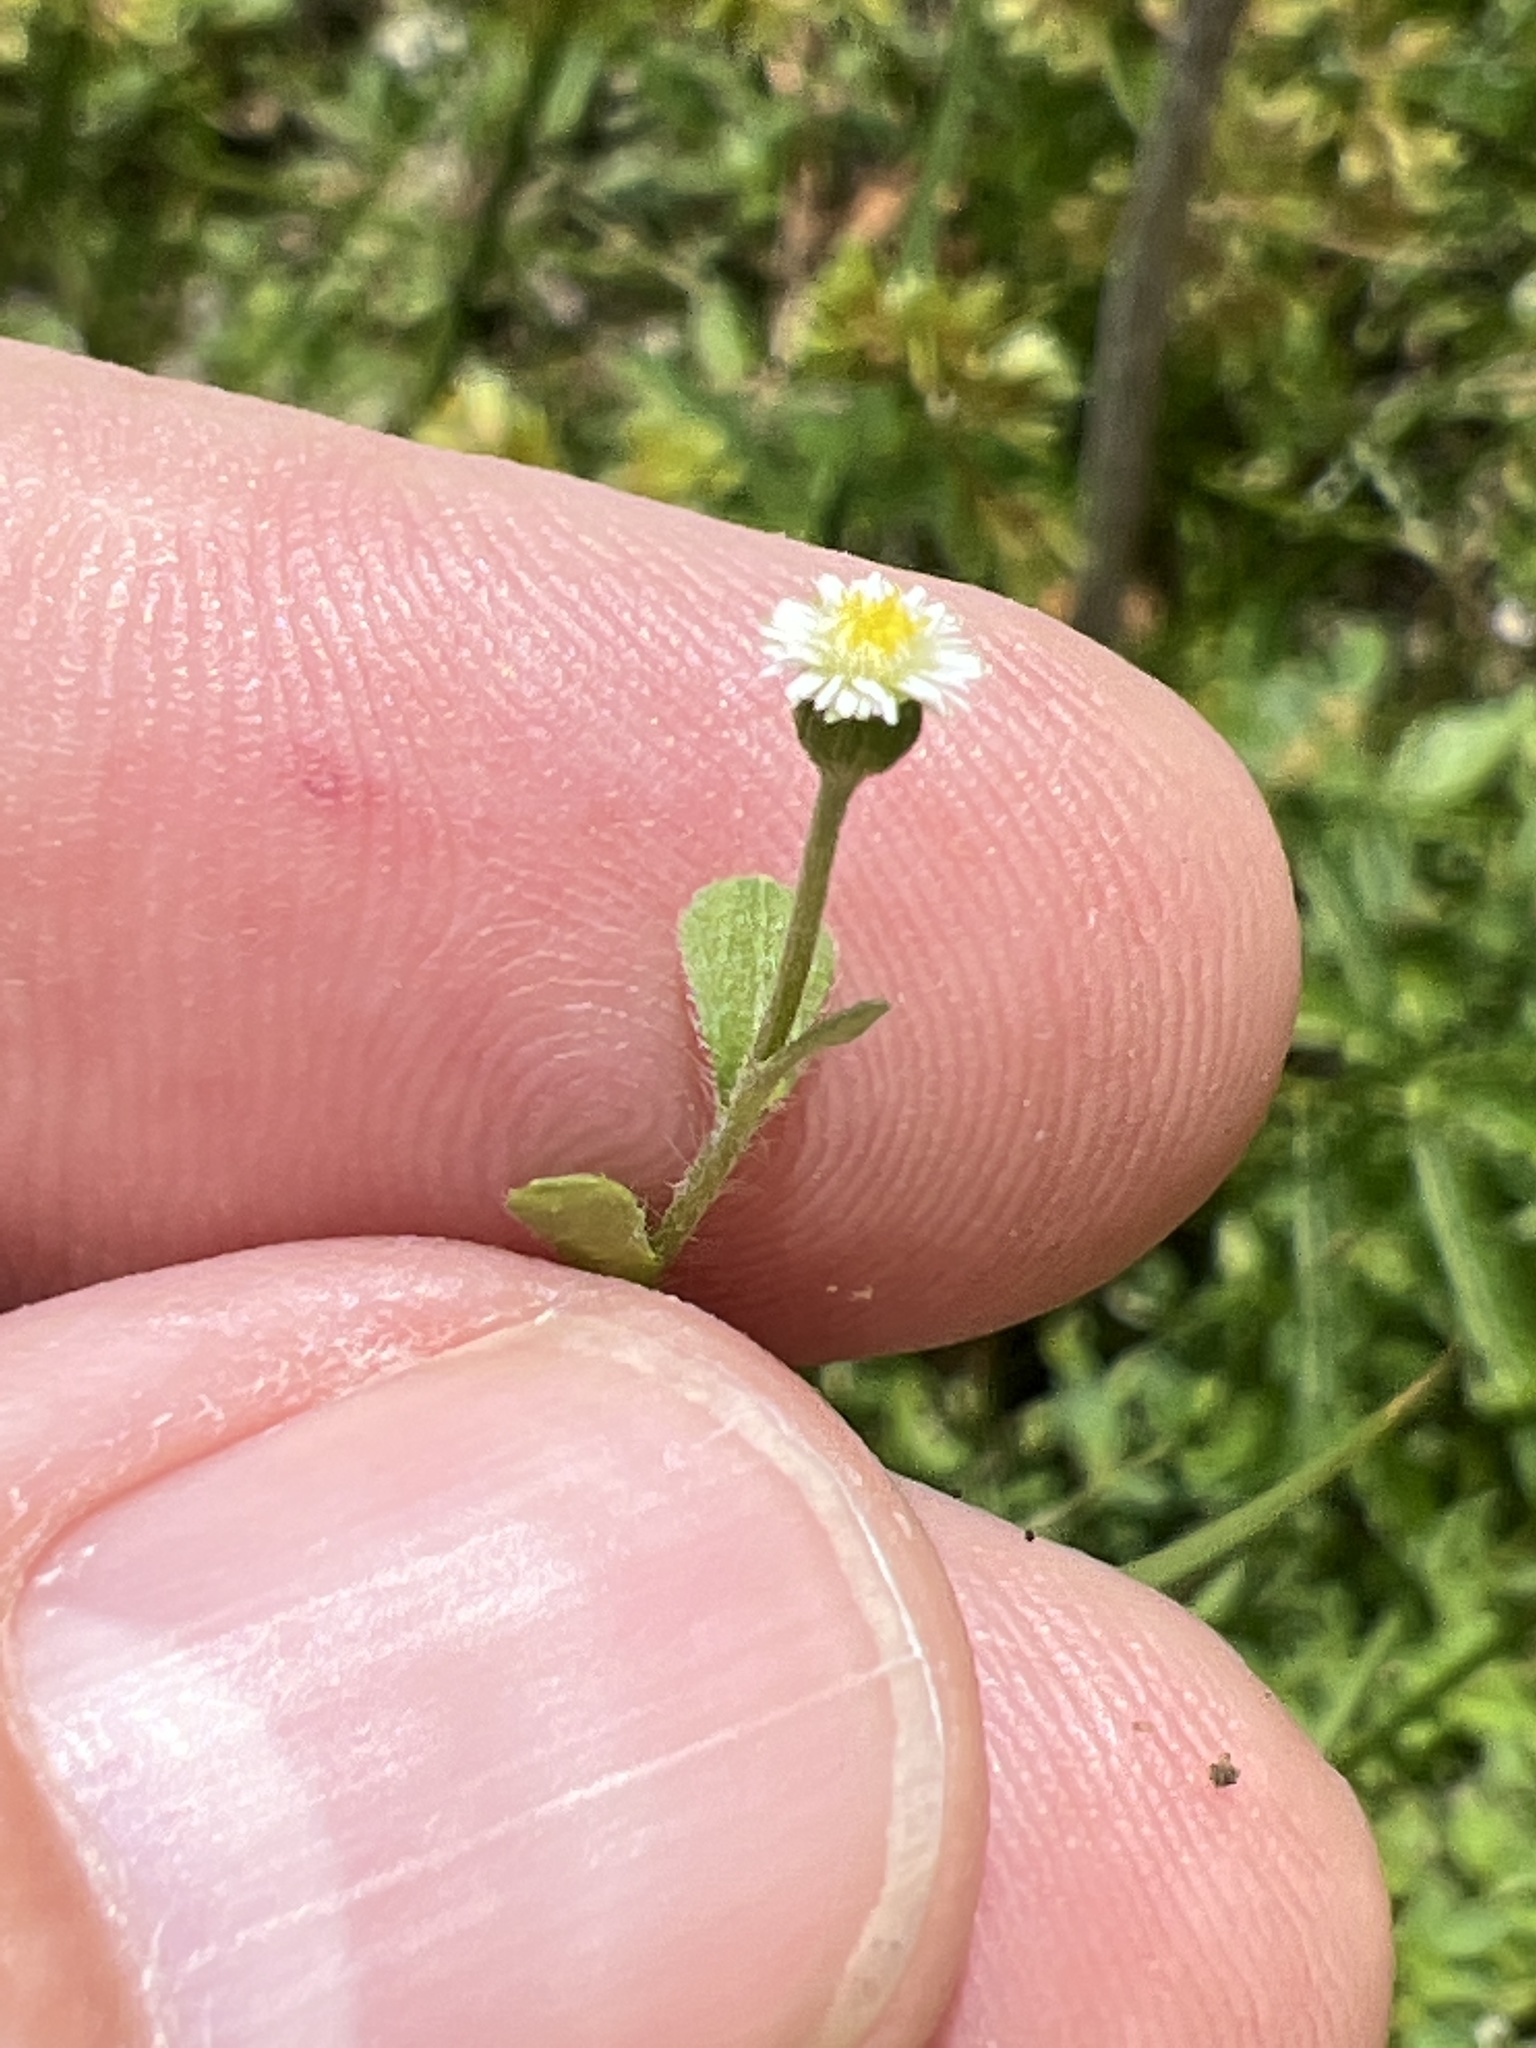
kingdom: Plantae
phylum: Tracheophyta
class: Magnoliopsida
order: Asterales
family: Asteraceae
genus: Erigeron
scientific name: Erigeron cuneifolius
